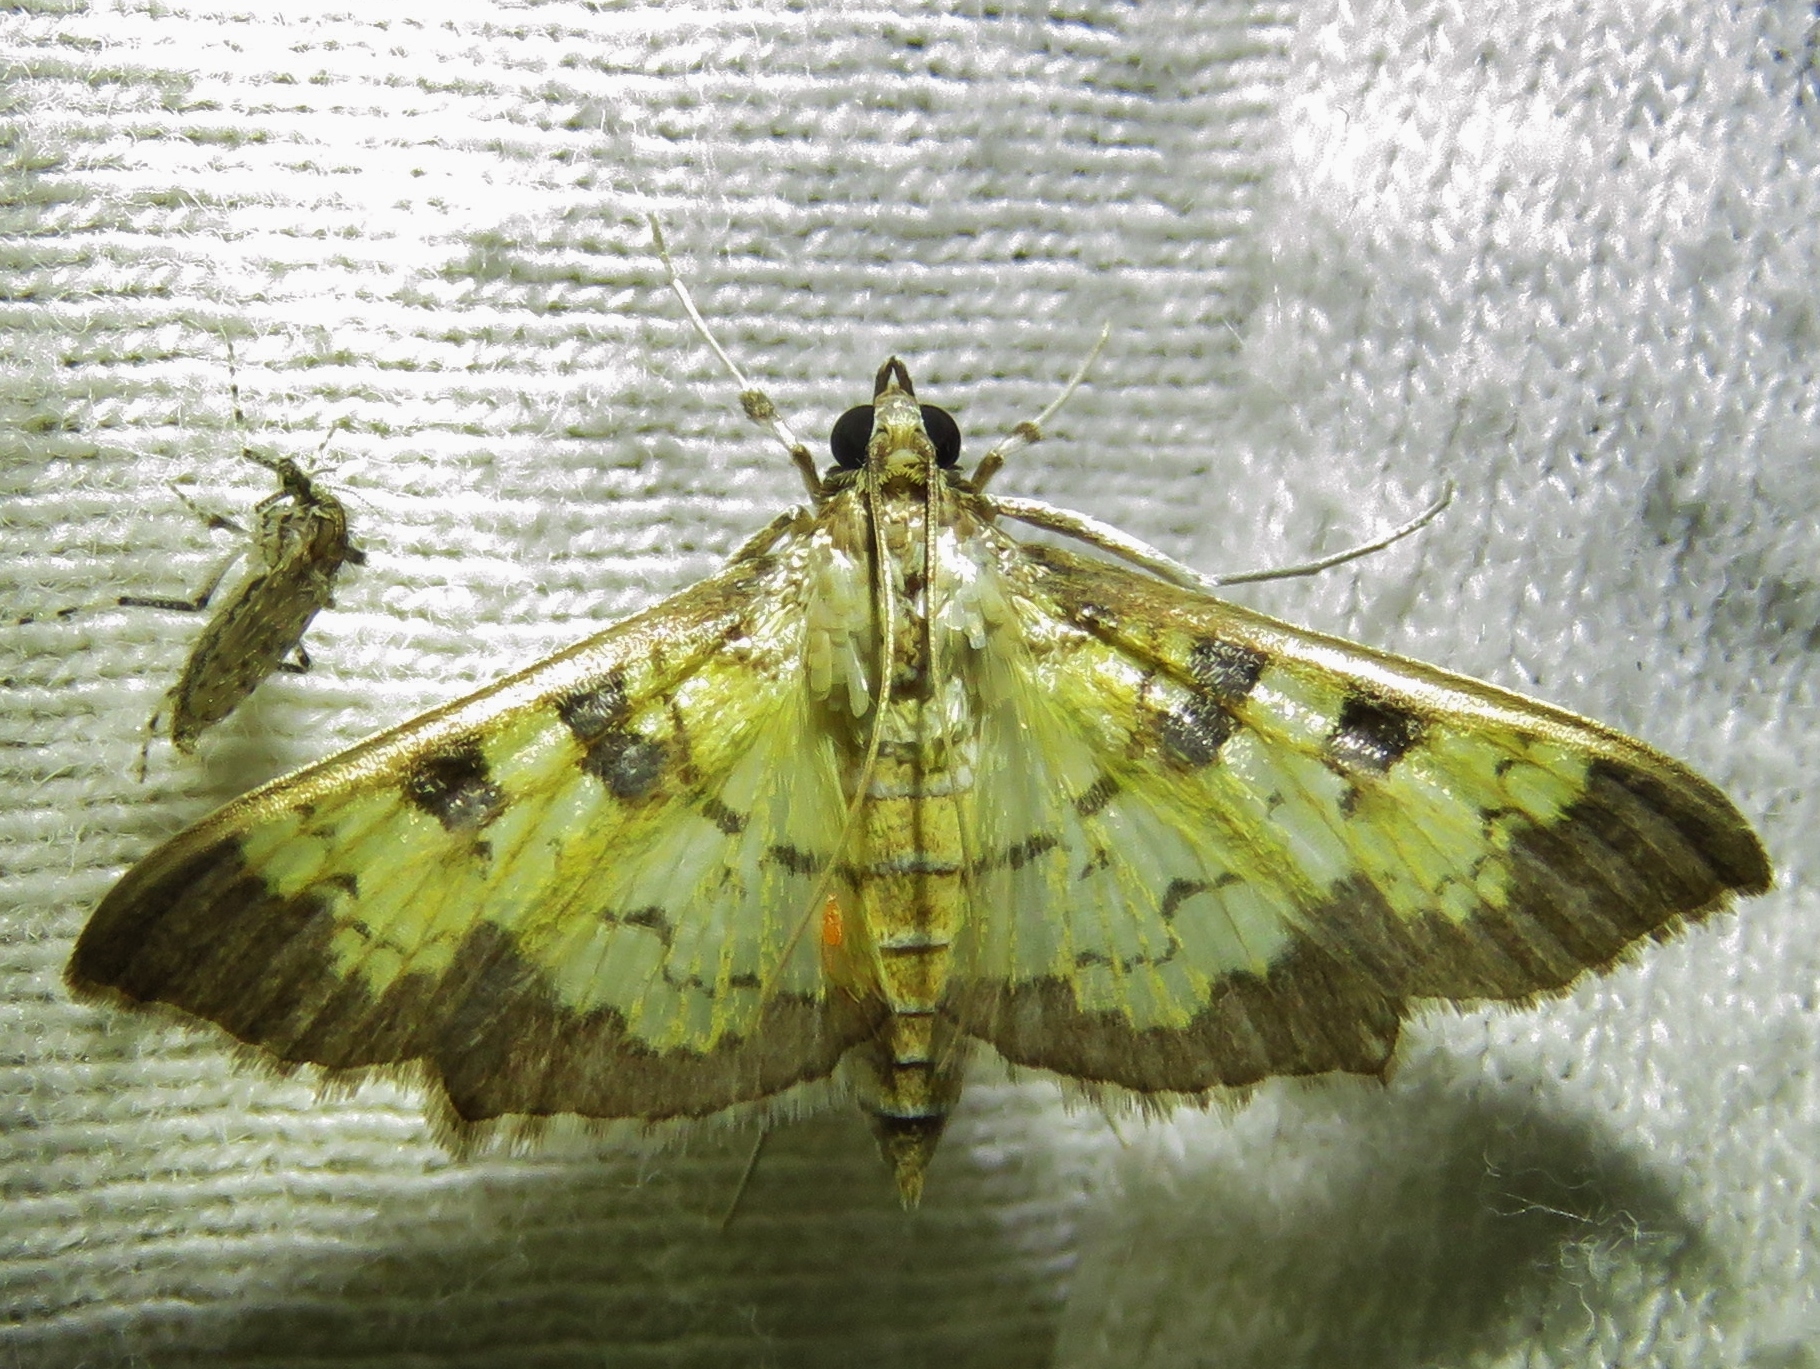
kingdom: Animalia
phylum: Arthropoda
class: Insecta
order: Lepidoptera
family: Crambidae
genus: Cryptographis
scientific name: Cryptographis elealis
